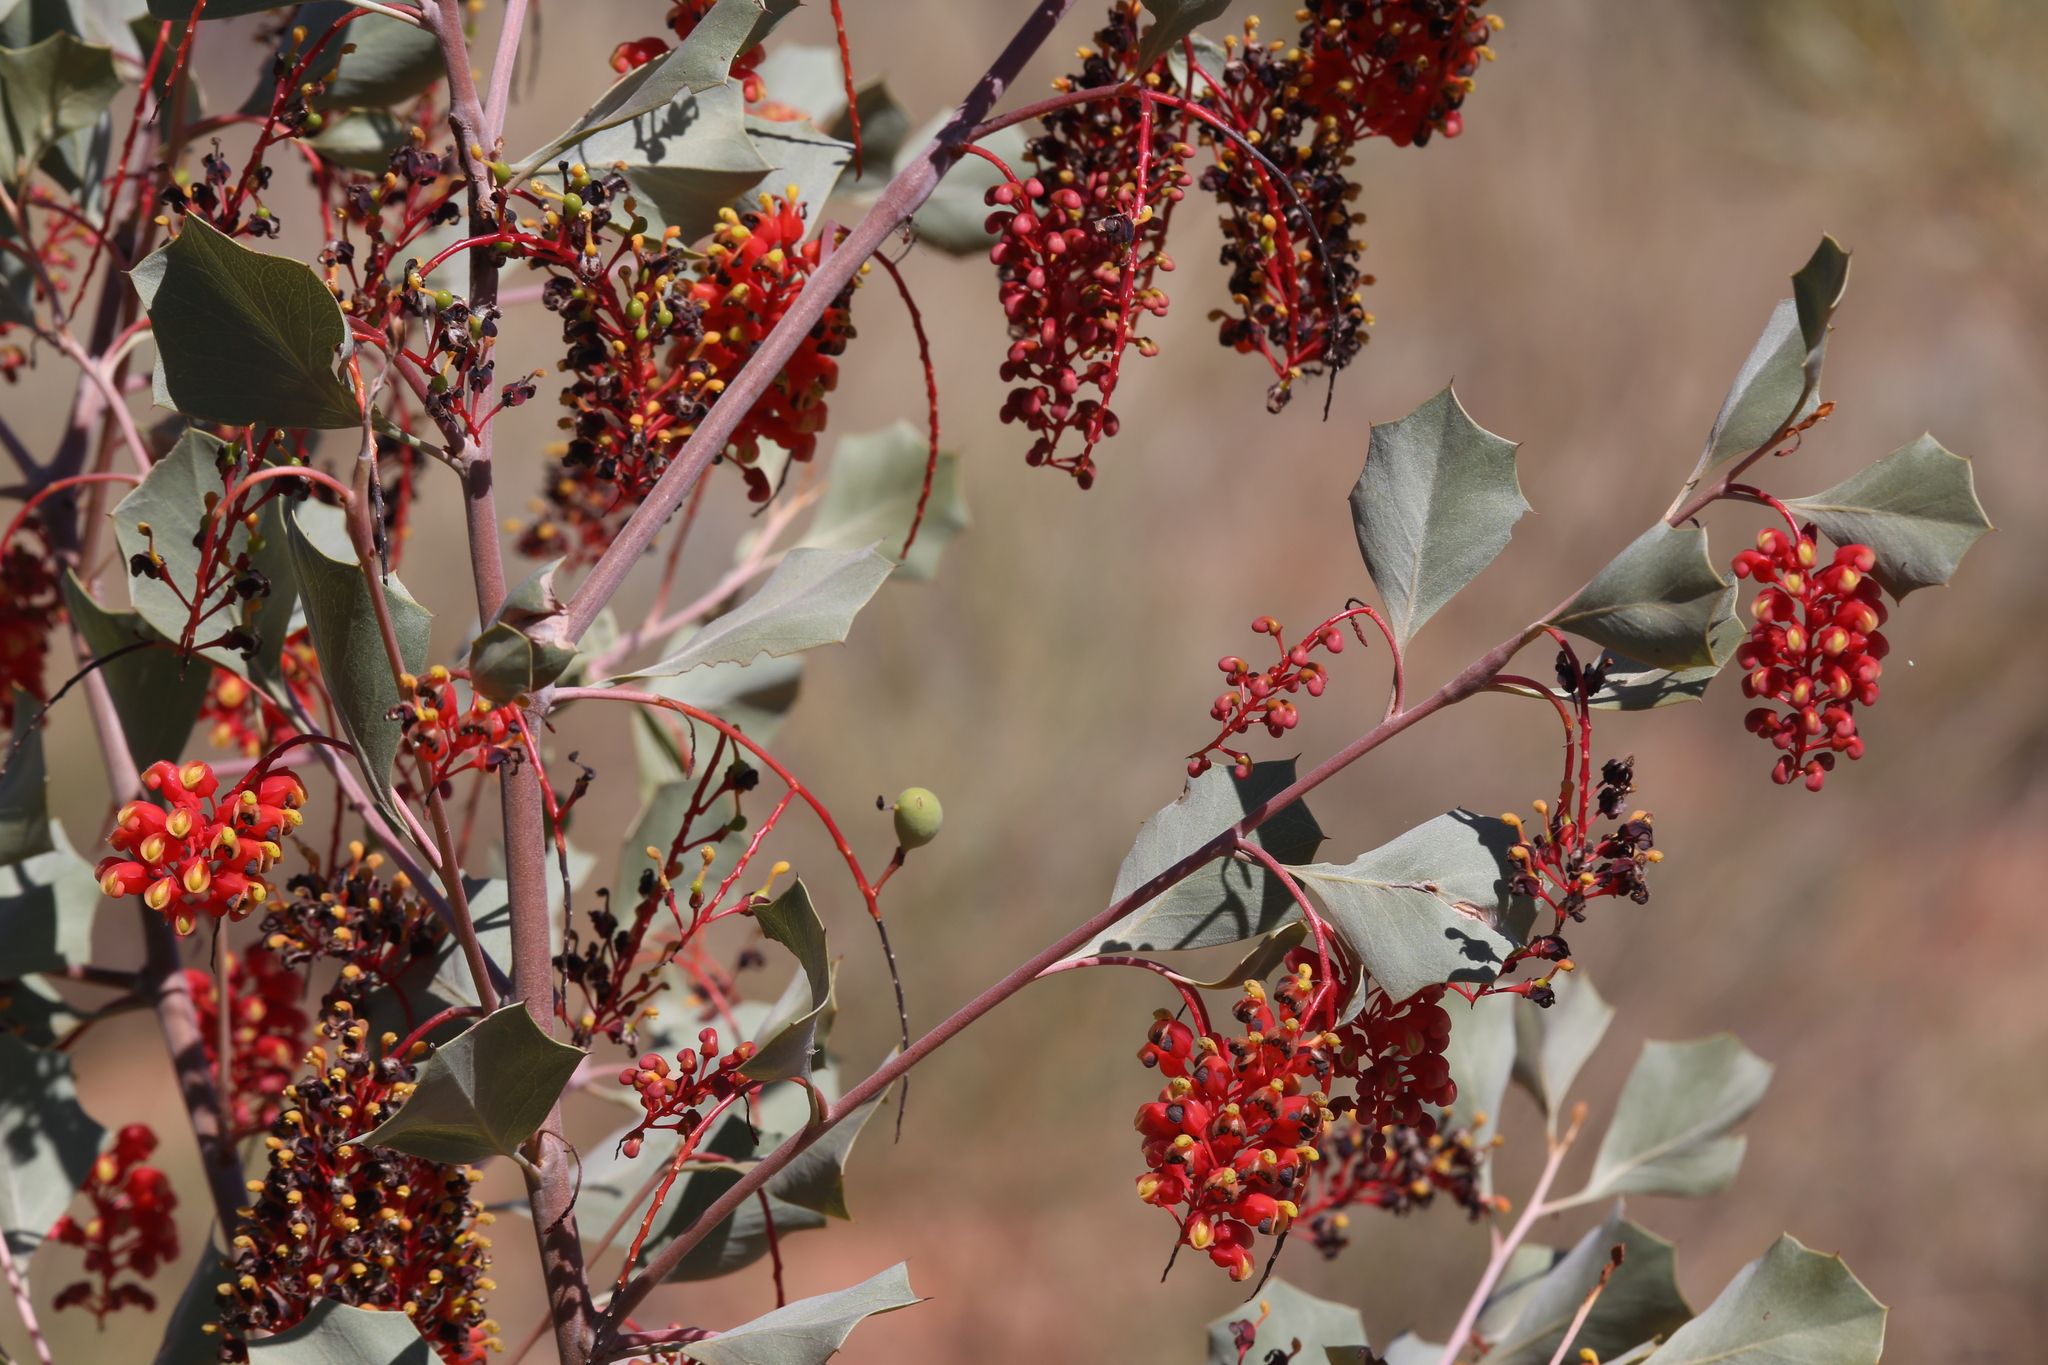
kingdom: Plantae
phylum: Tracheophyta
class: Magnoliopsida
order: Proteales
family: Proteaceae
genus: Grevillea
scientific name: Grevillea wickhamii
